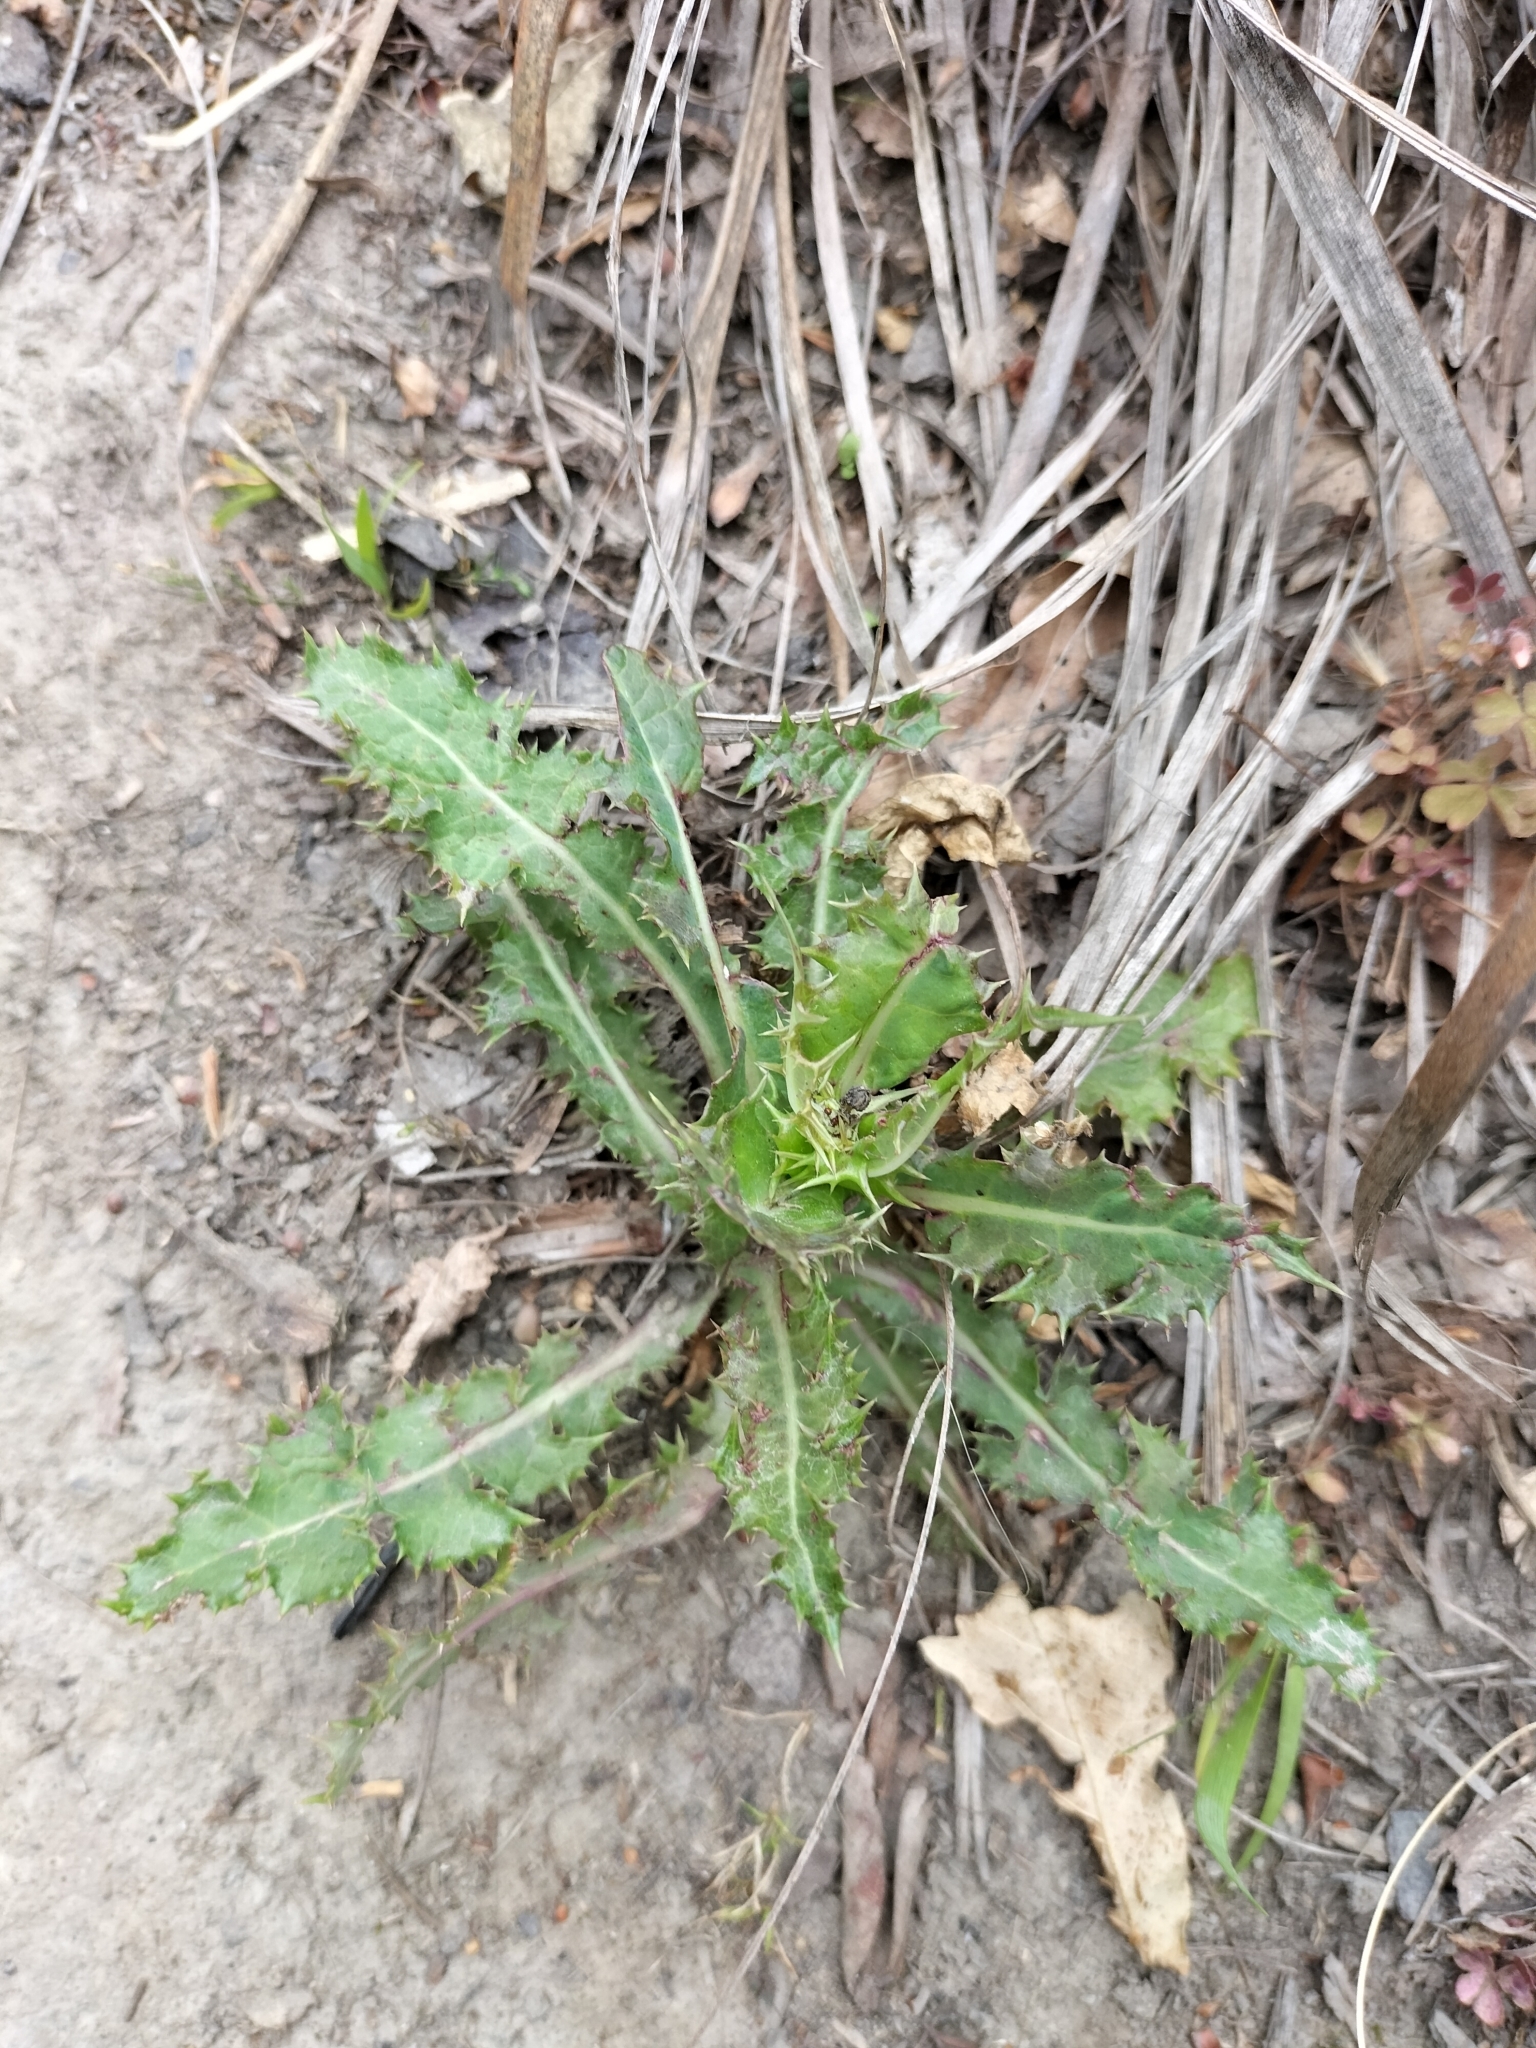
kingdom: Plantae
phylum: Tracheophyta
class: Magnoliopsida
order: Asterales
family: Asteraceae
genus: Sonchus
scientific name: Sonchus asper
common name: Prickly sow-thistle
